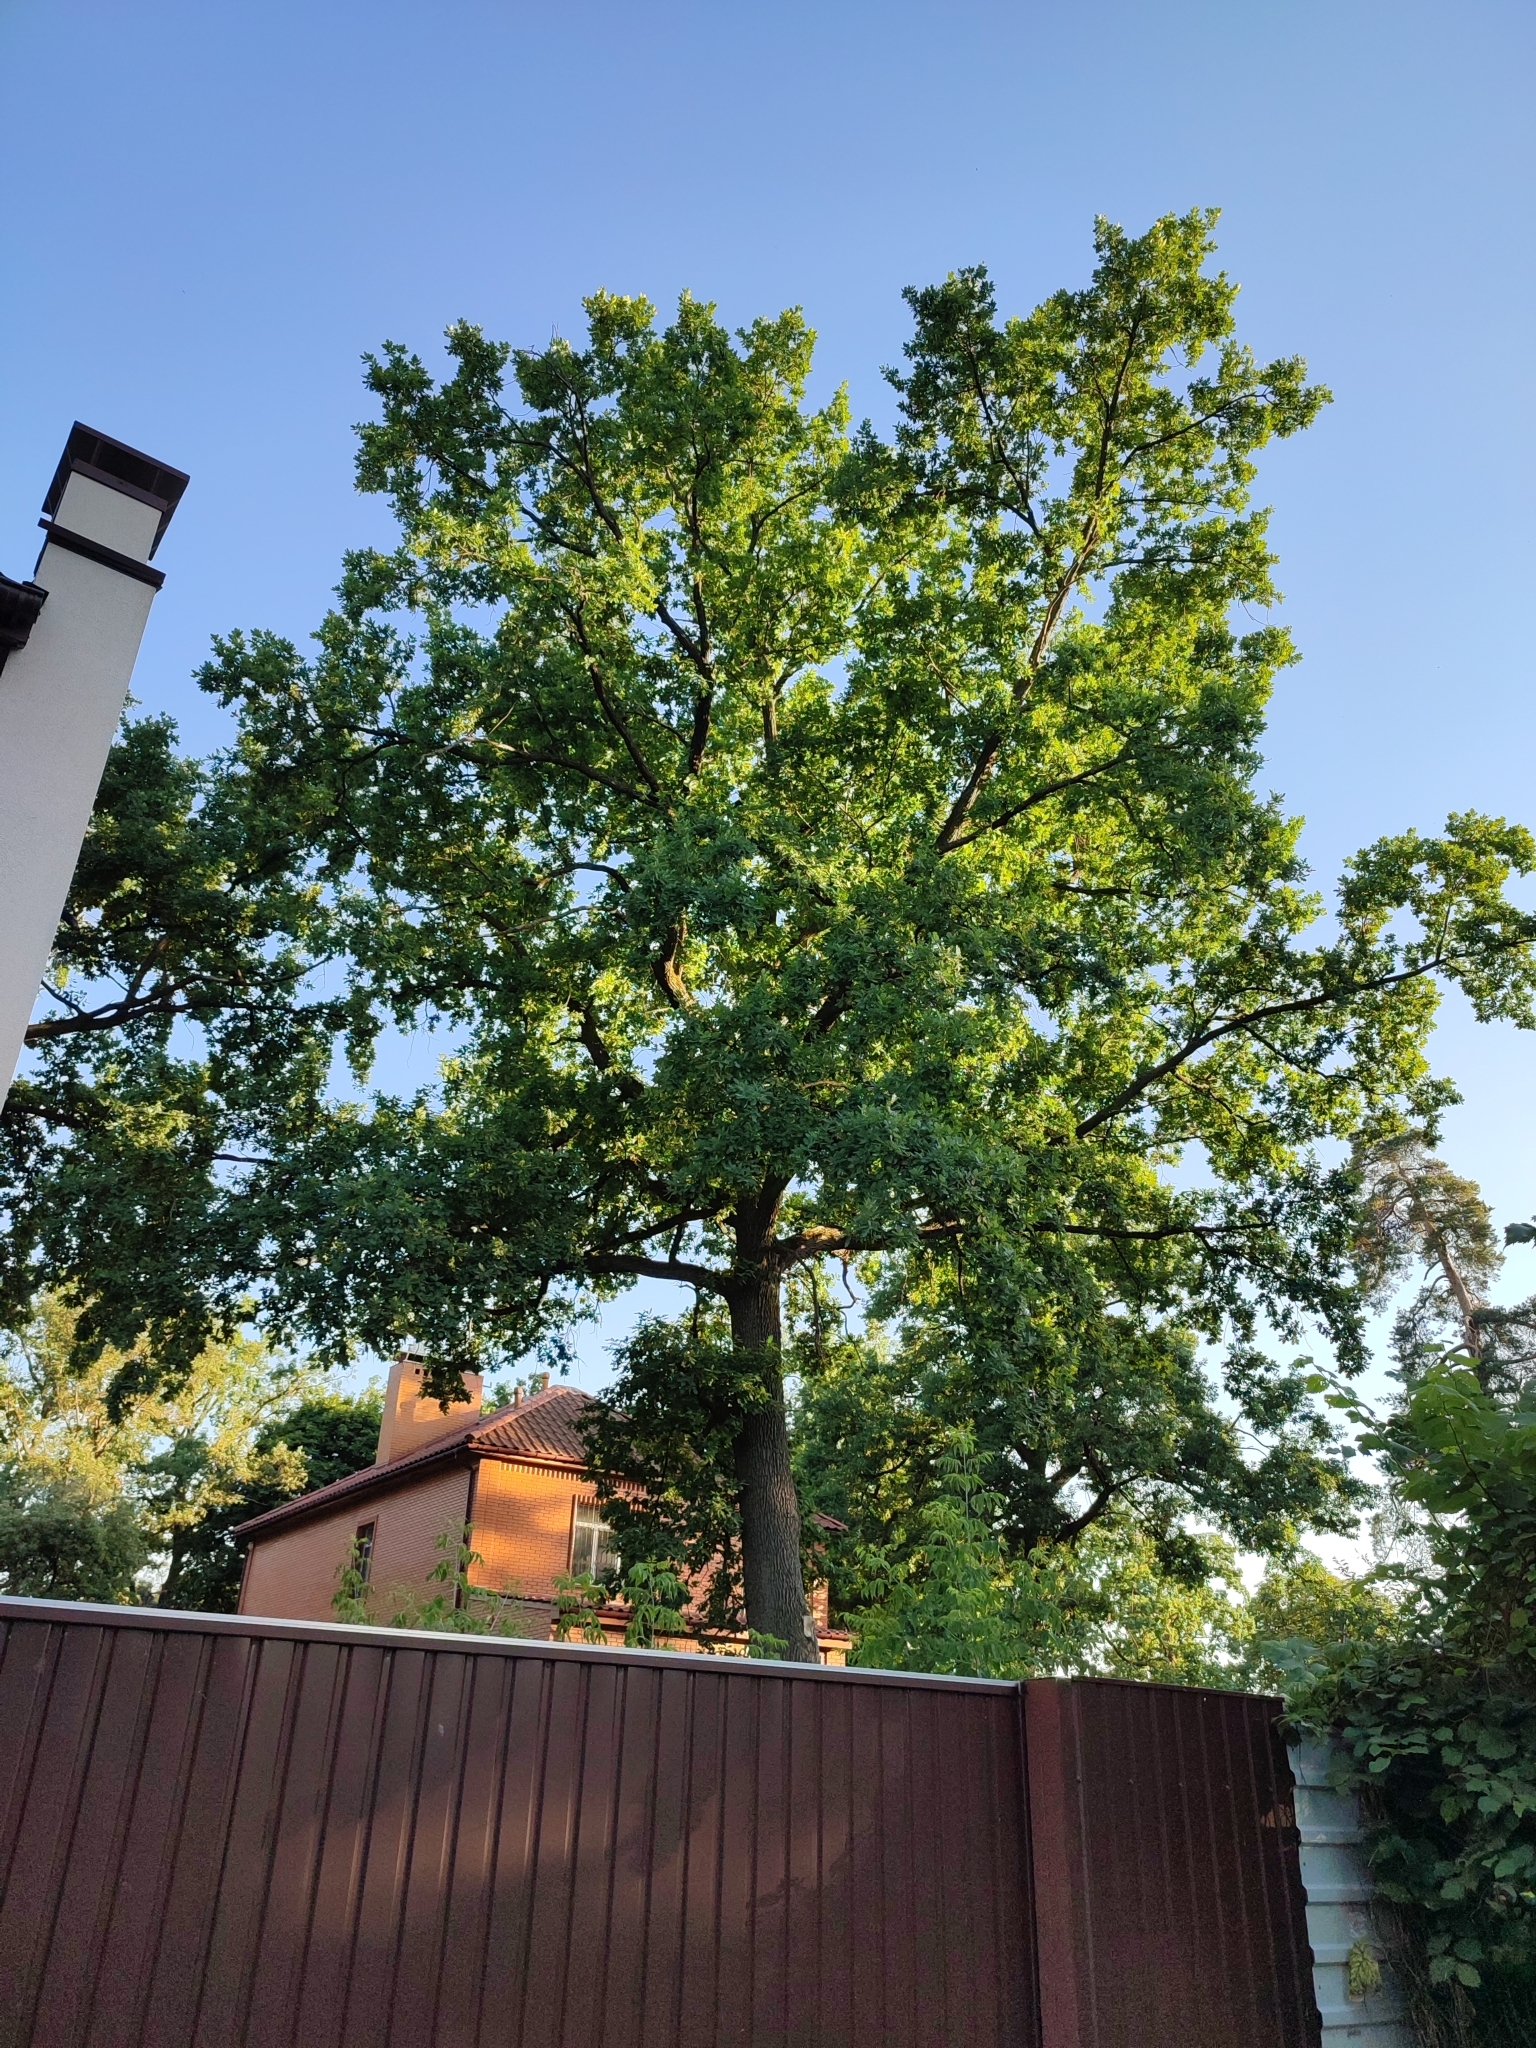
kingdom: Plantae
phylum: Tracheophyta
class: Magnoliopsida
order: Fagales
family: Fagaceae
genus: Quercus
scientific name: Quercus robur
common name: Pedunculate oak
